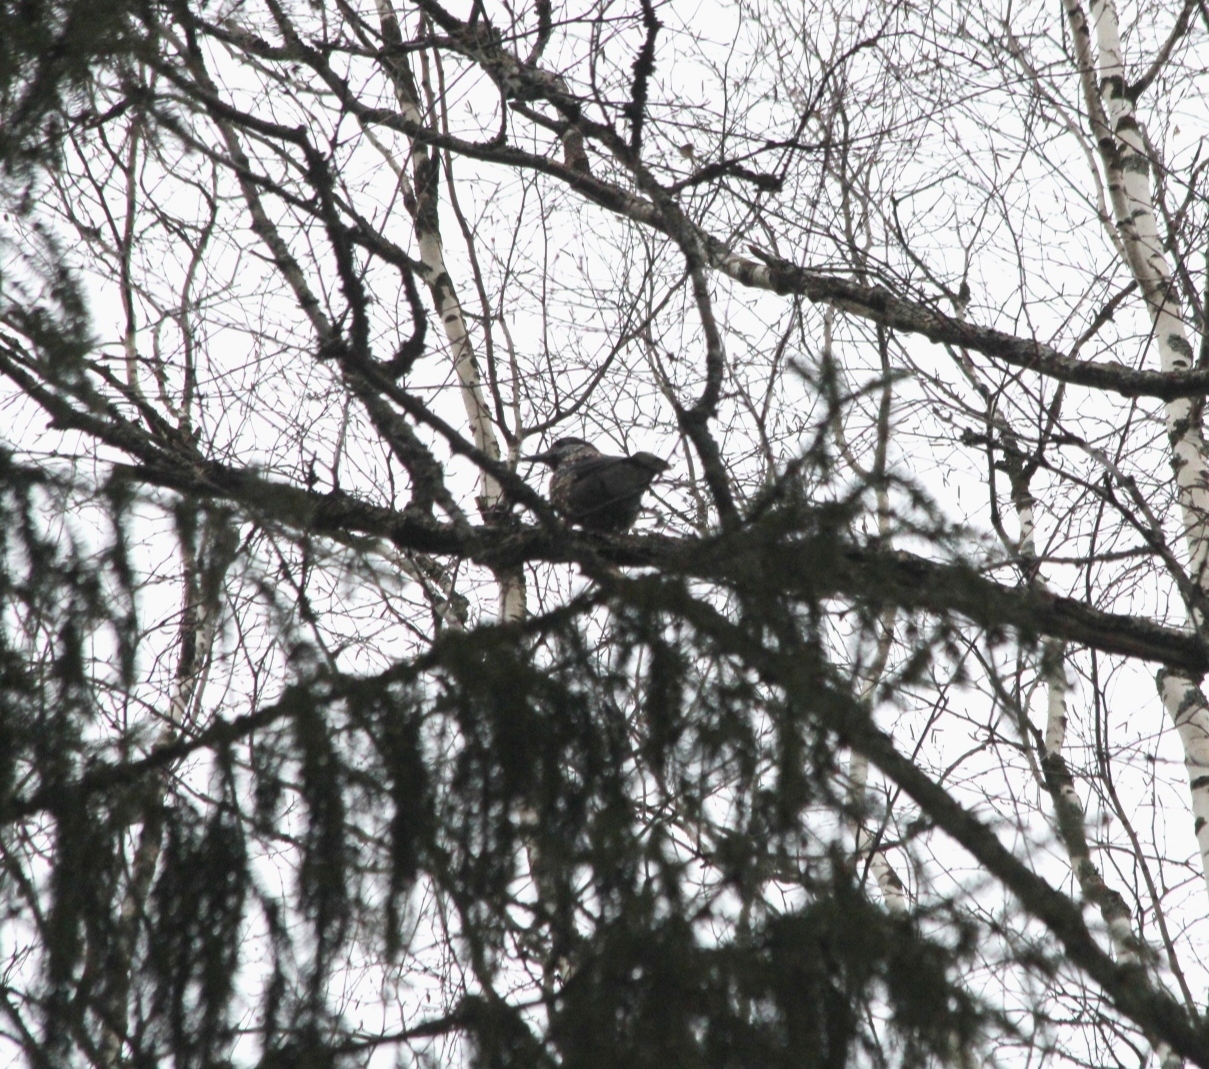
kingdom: Animalia
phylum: Chordata
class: Aves
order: Passeriformes
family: Corvidae
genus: Nucifraga
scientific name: Nucifraga caryocatactes
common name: Spotted nutcracker
